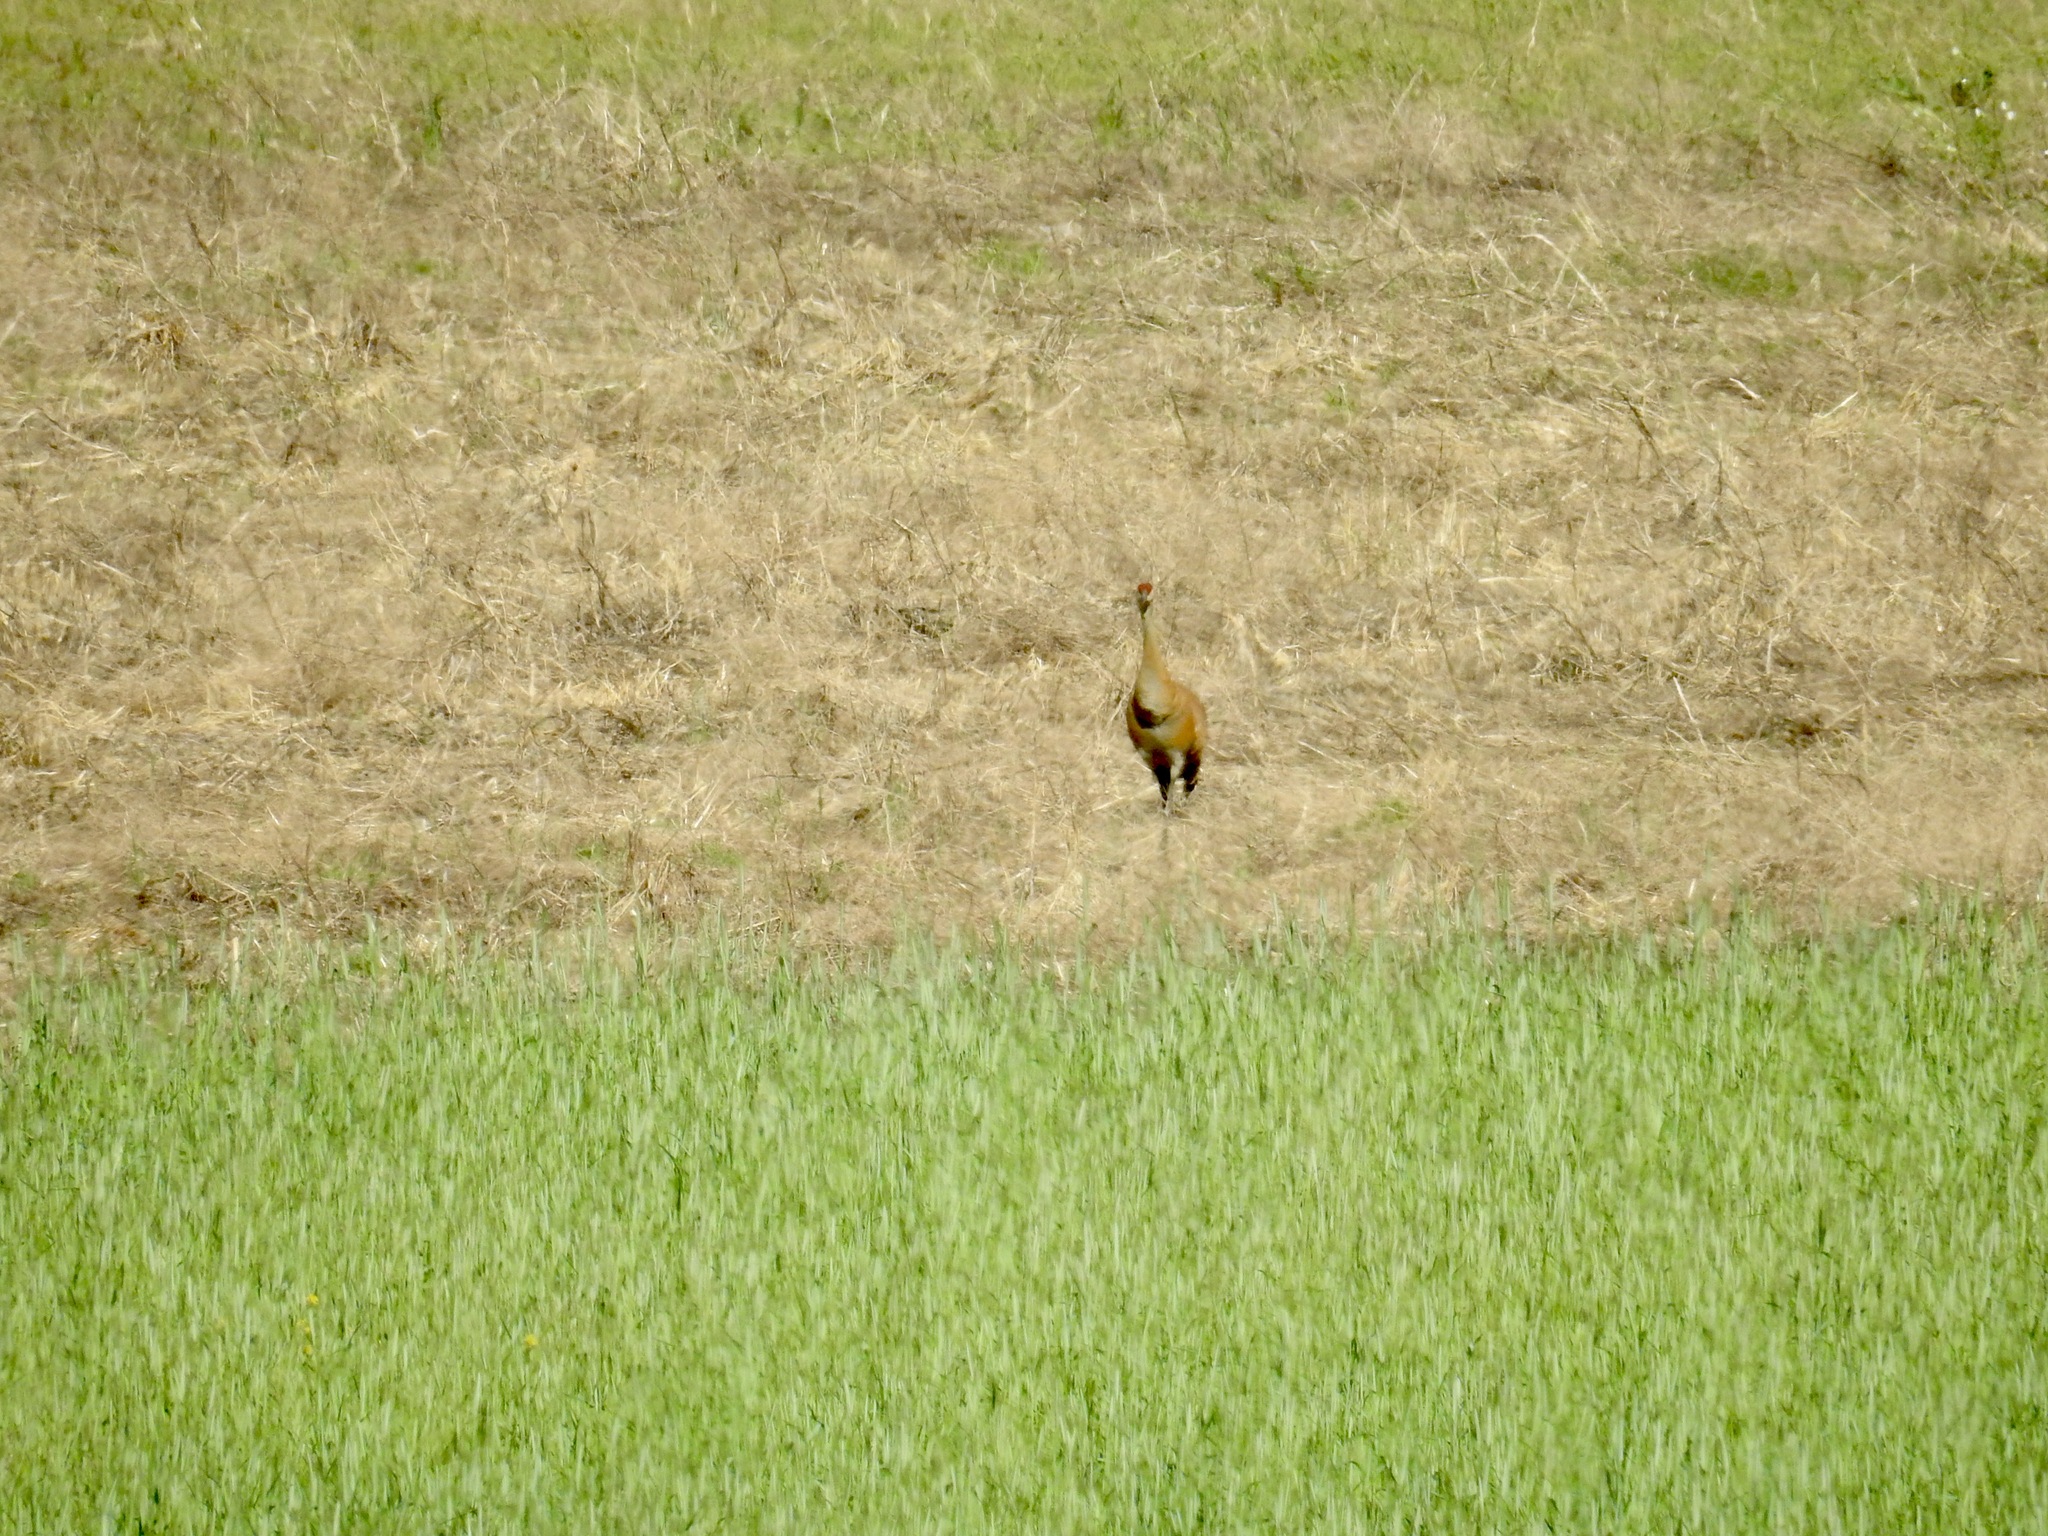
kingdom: Animalia
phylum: Chordata
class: Aves
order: Gruiformes
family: Gruidae
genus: Grus
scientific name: Grus canadensis
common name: Sandhill crane
